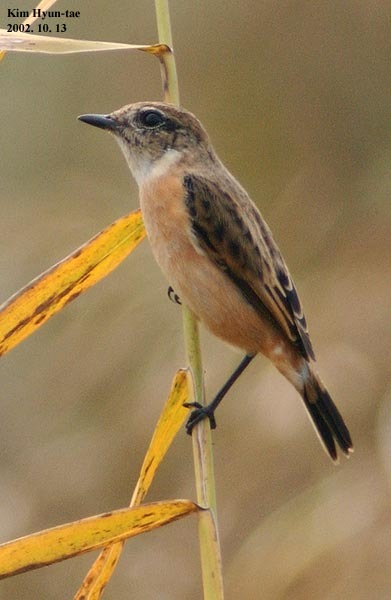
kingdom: Animalia
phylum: Chordata
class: Aves
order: Passeriformes
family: Muscicapidae
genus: Saxicola
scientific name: Saxicola stejnegeri
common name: Stejneger's stonechat
